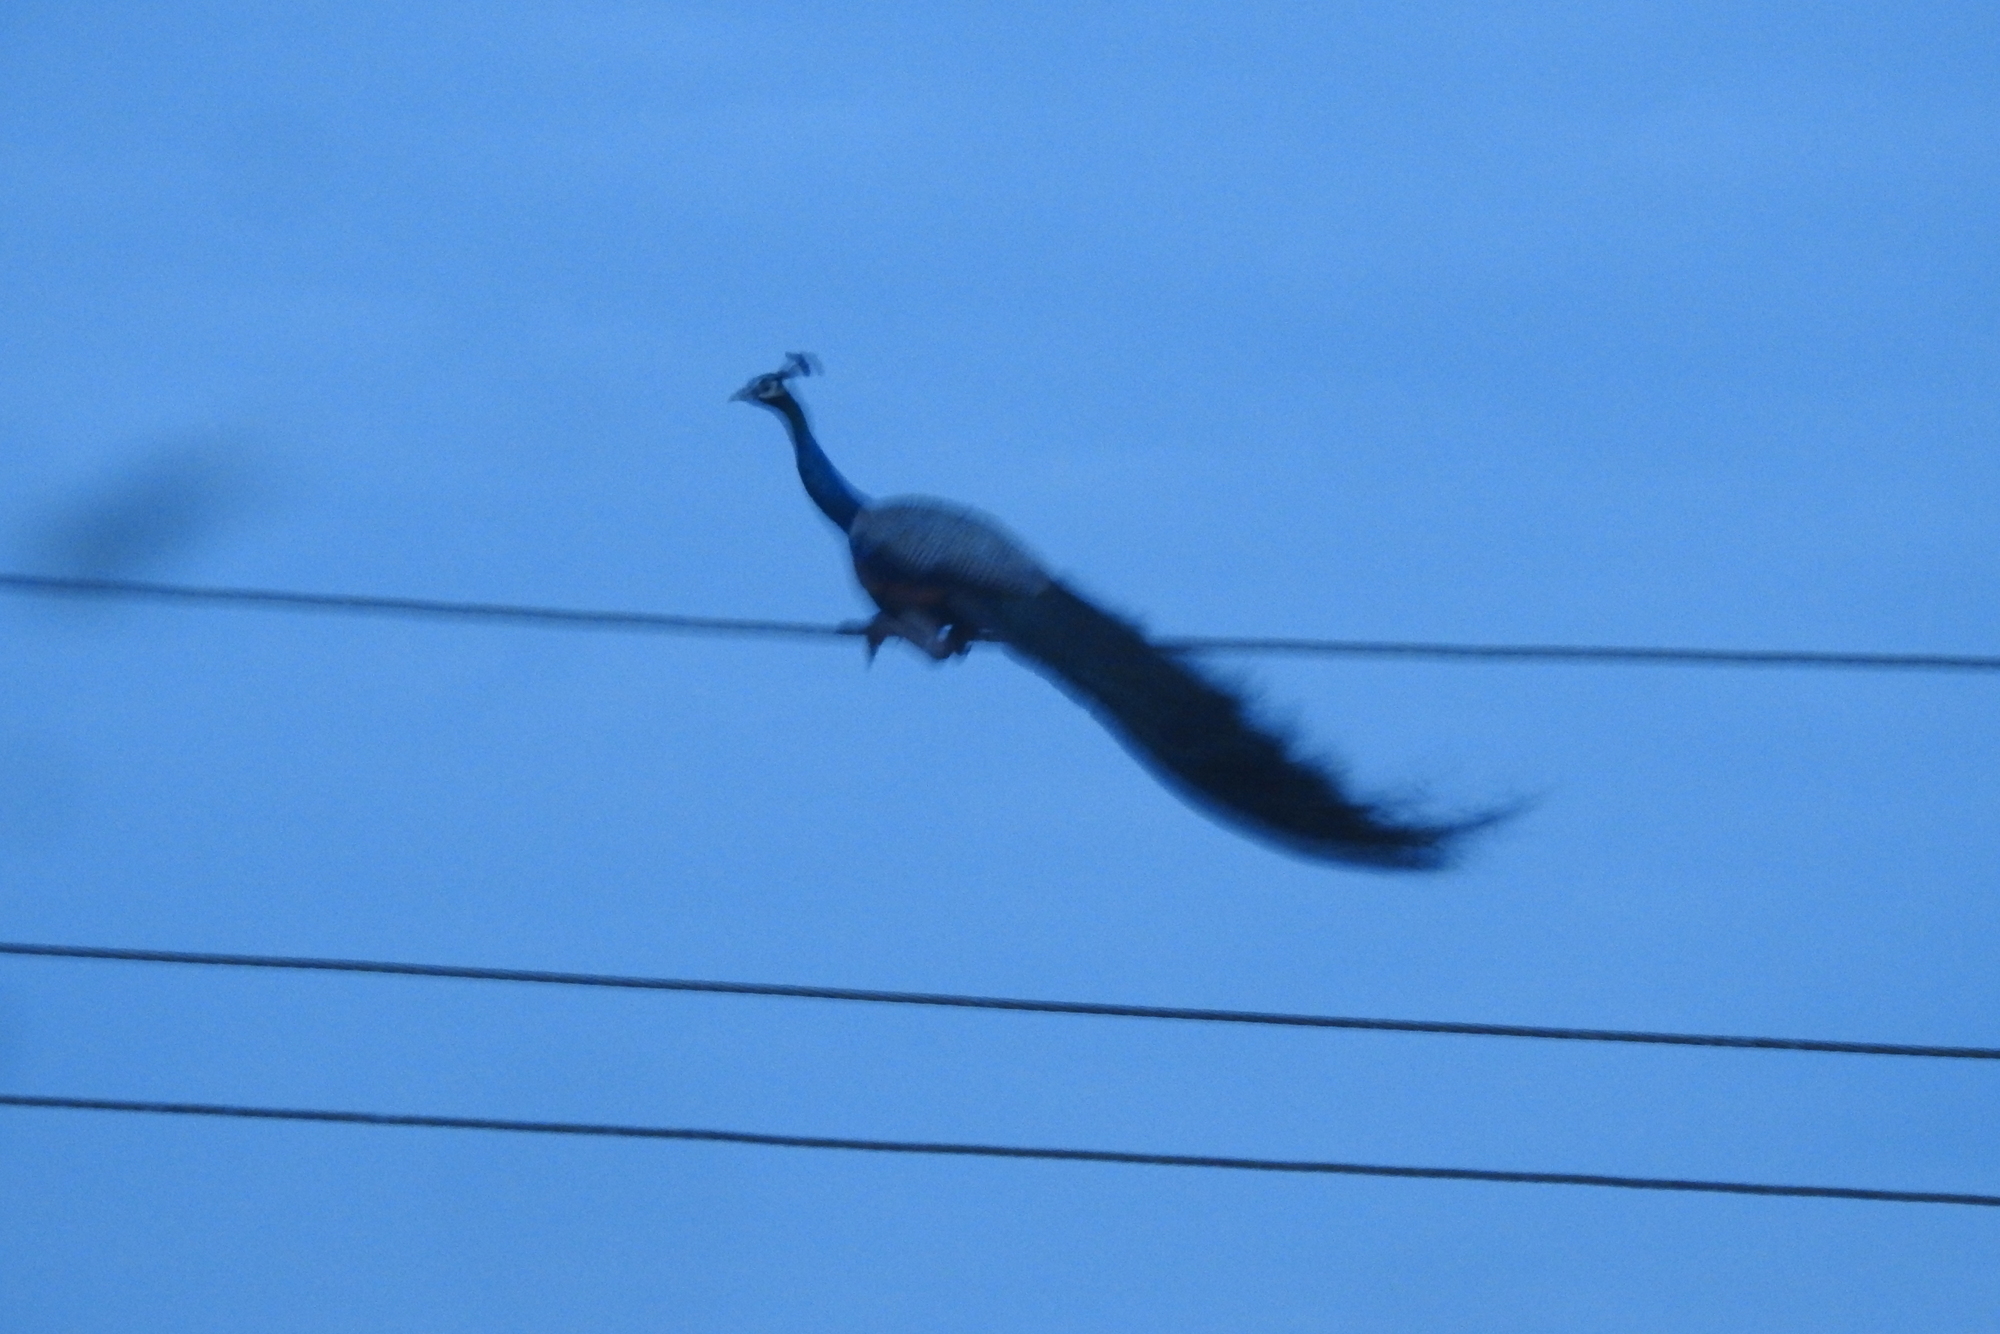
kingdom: Animalia
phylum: Chordata
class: Aves
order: Galliformes
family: Phasianidae
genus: Pavo
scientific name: Pavo cristatus
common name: Indian peafowl
